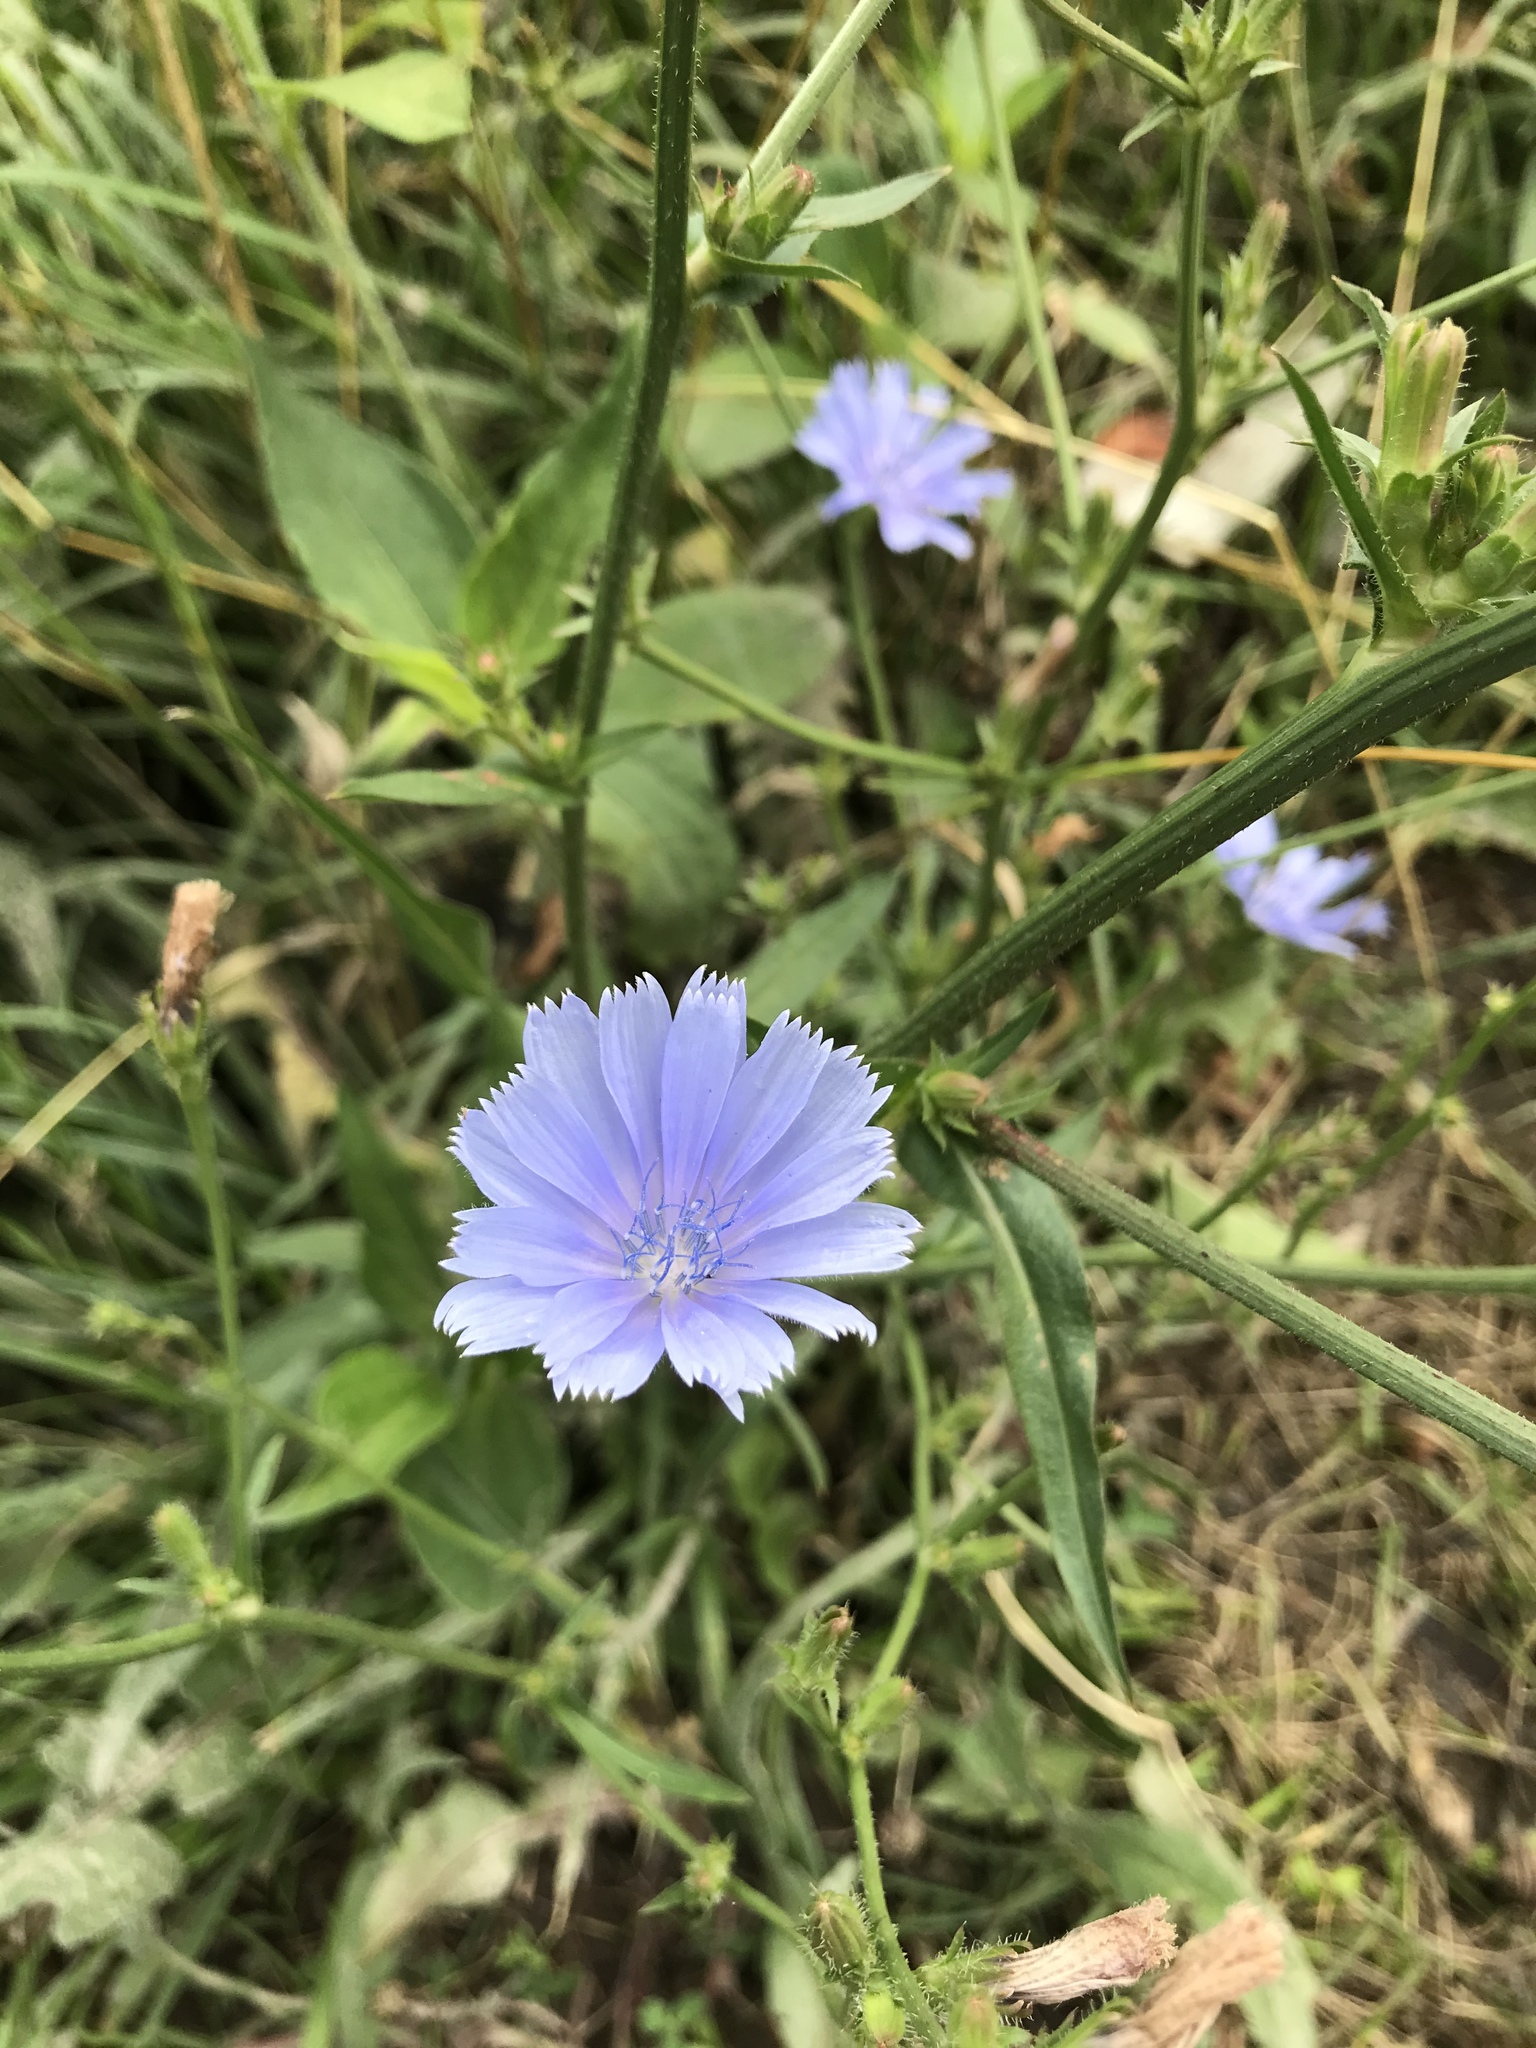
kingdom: Plantae
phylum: Tracheophyta
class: Magnoliopsida
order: Asterales
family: Asteraceae
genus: Cichorium
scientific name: Cichorium intybus
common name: Chicory
